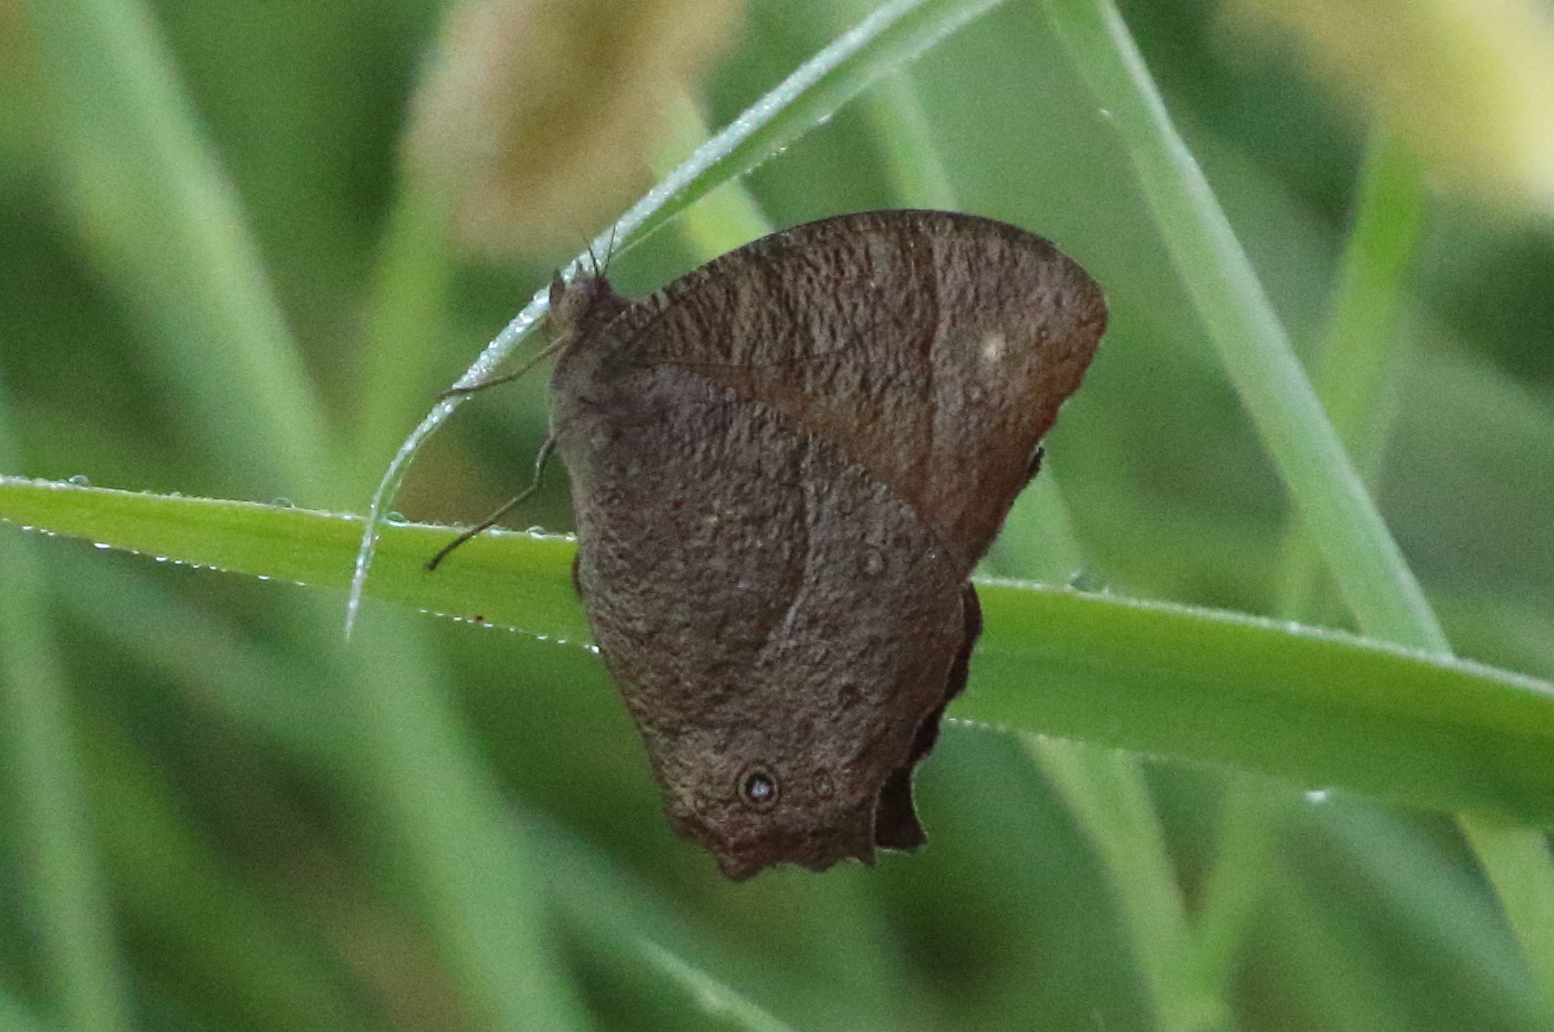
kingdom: Animalia
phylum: Arthropoda
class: Insecta
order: Lepidoptera
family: Nymphalidae
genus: Melanitis
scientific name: Melanitis leda
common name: Twilight brown
